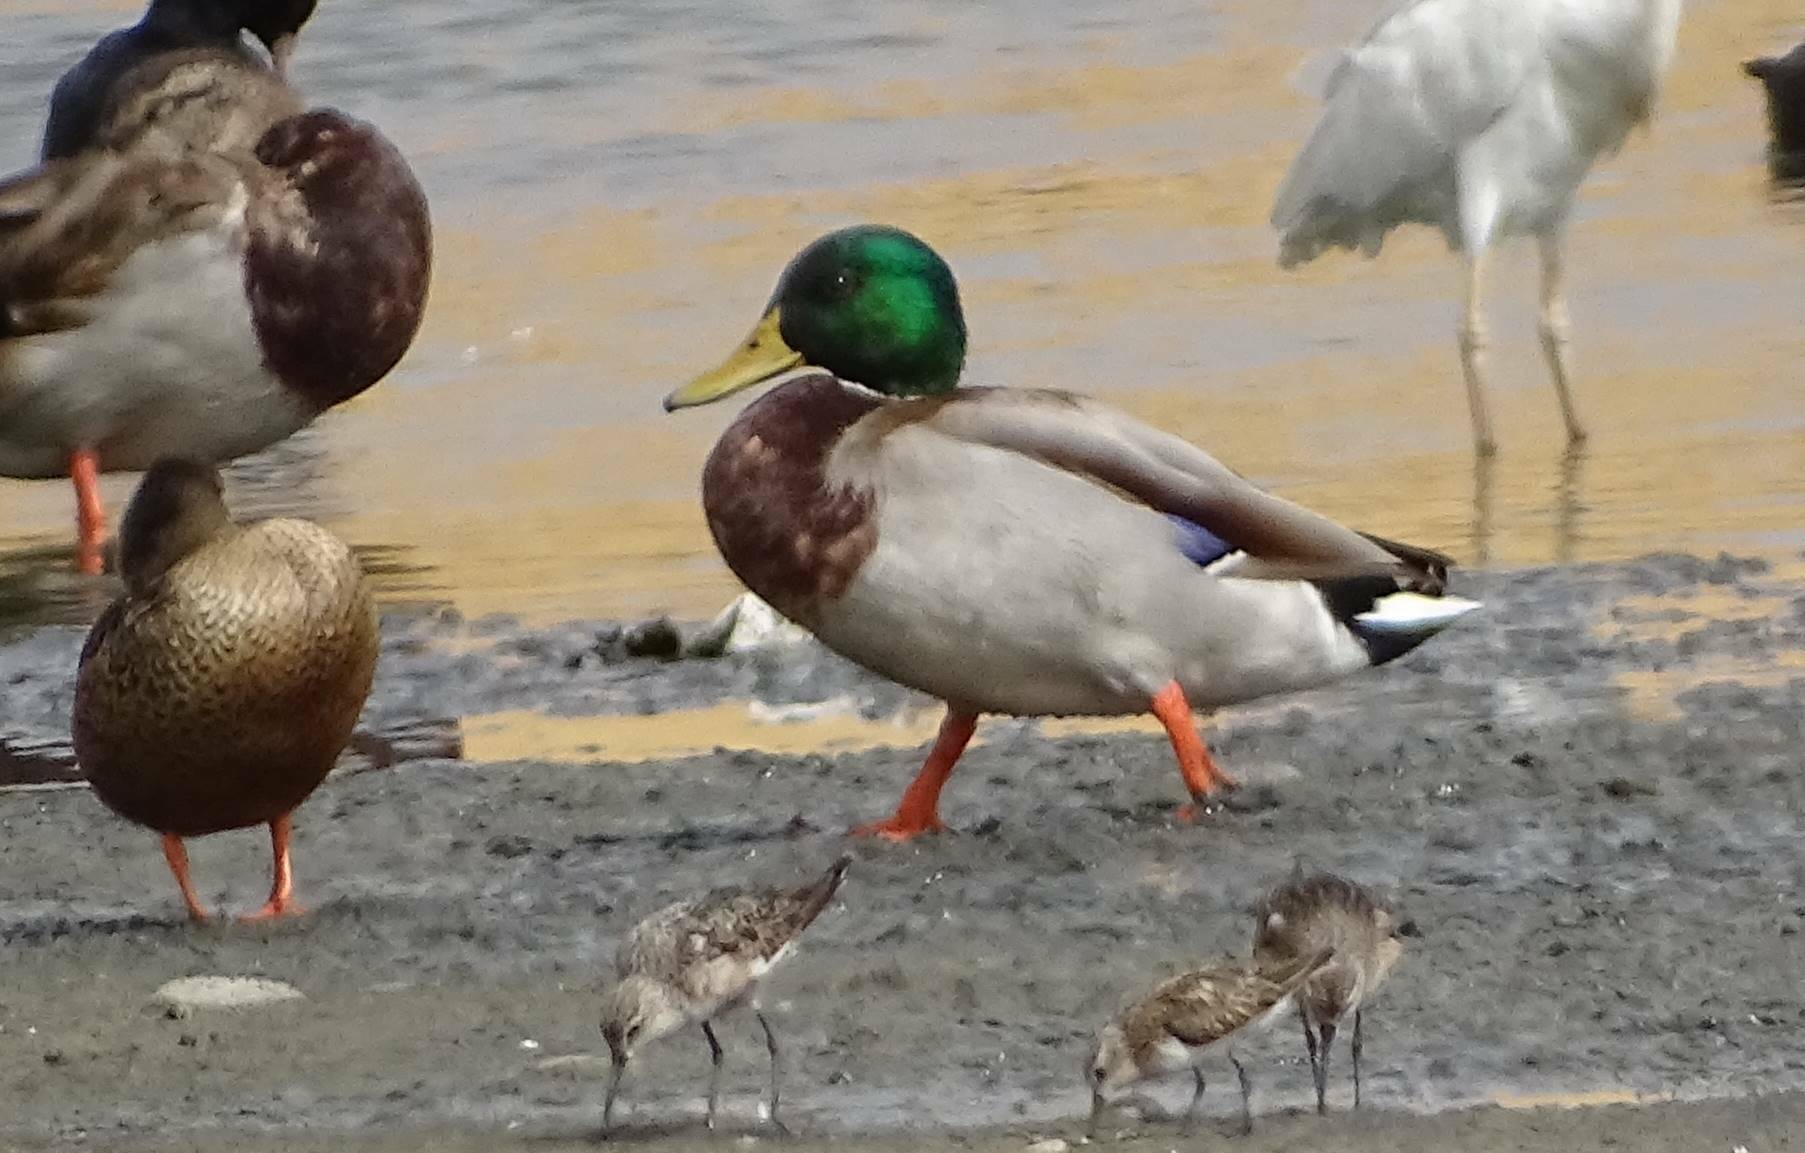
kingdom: Animalia
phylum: Chordata
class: Aves
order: Anseriformes
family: Anatidae
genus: Anas
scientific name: Anas platyrhynchos
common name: Mallard
